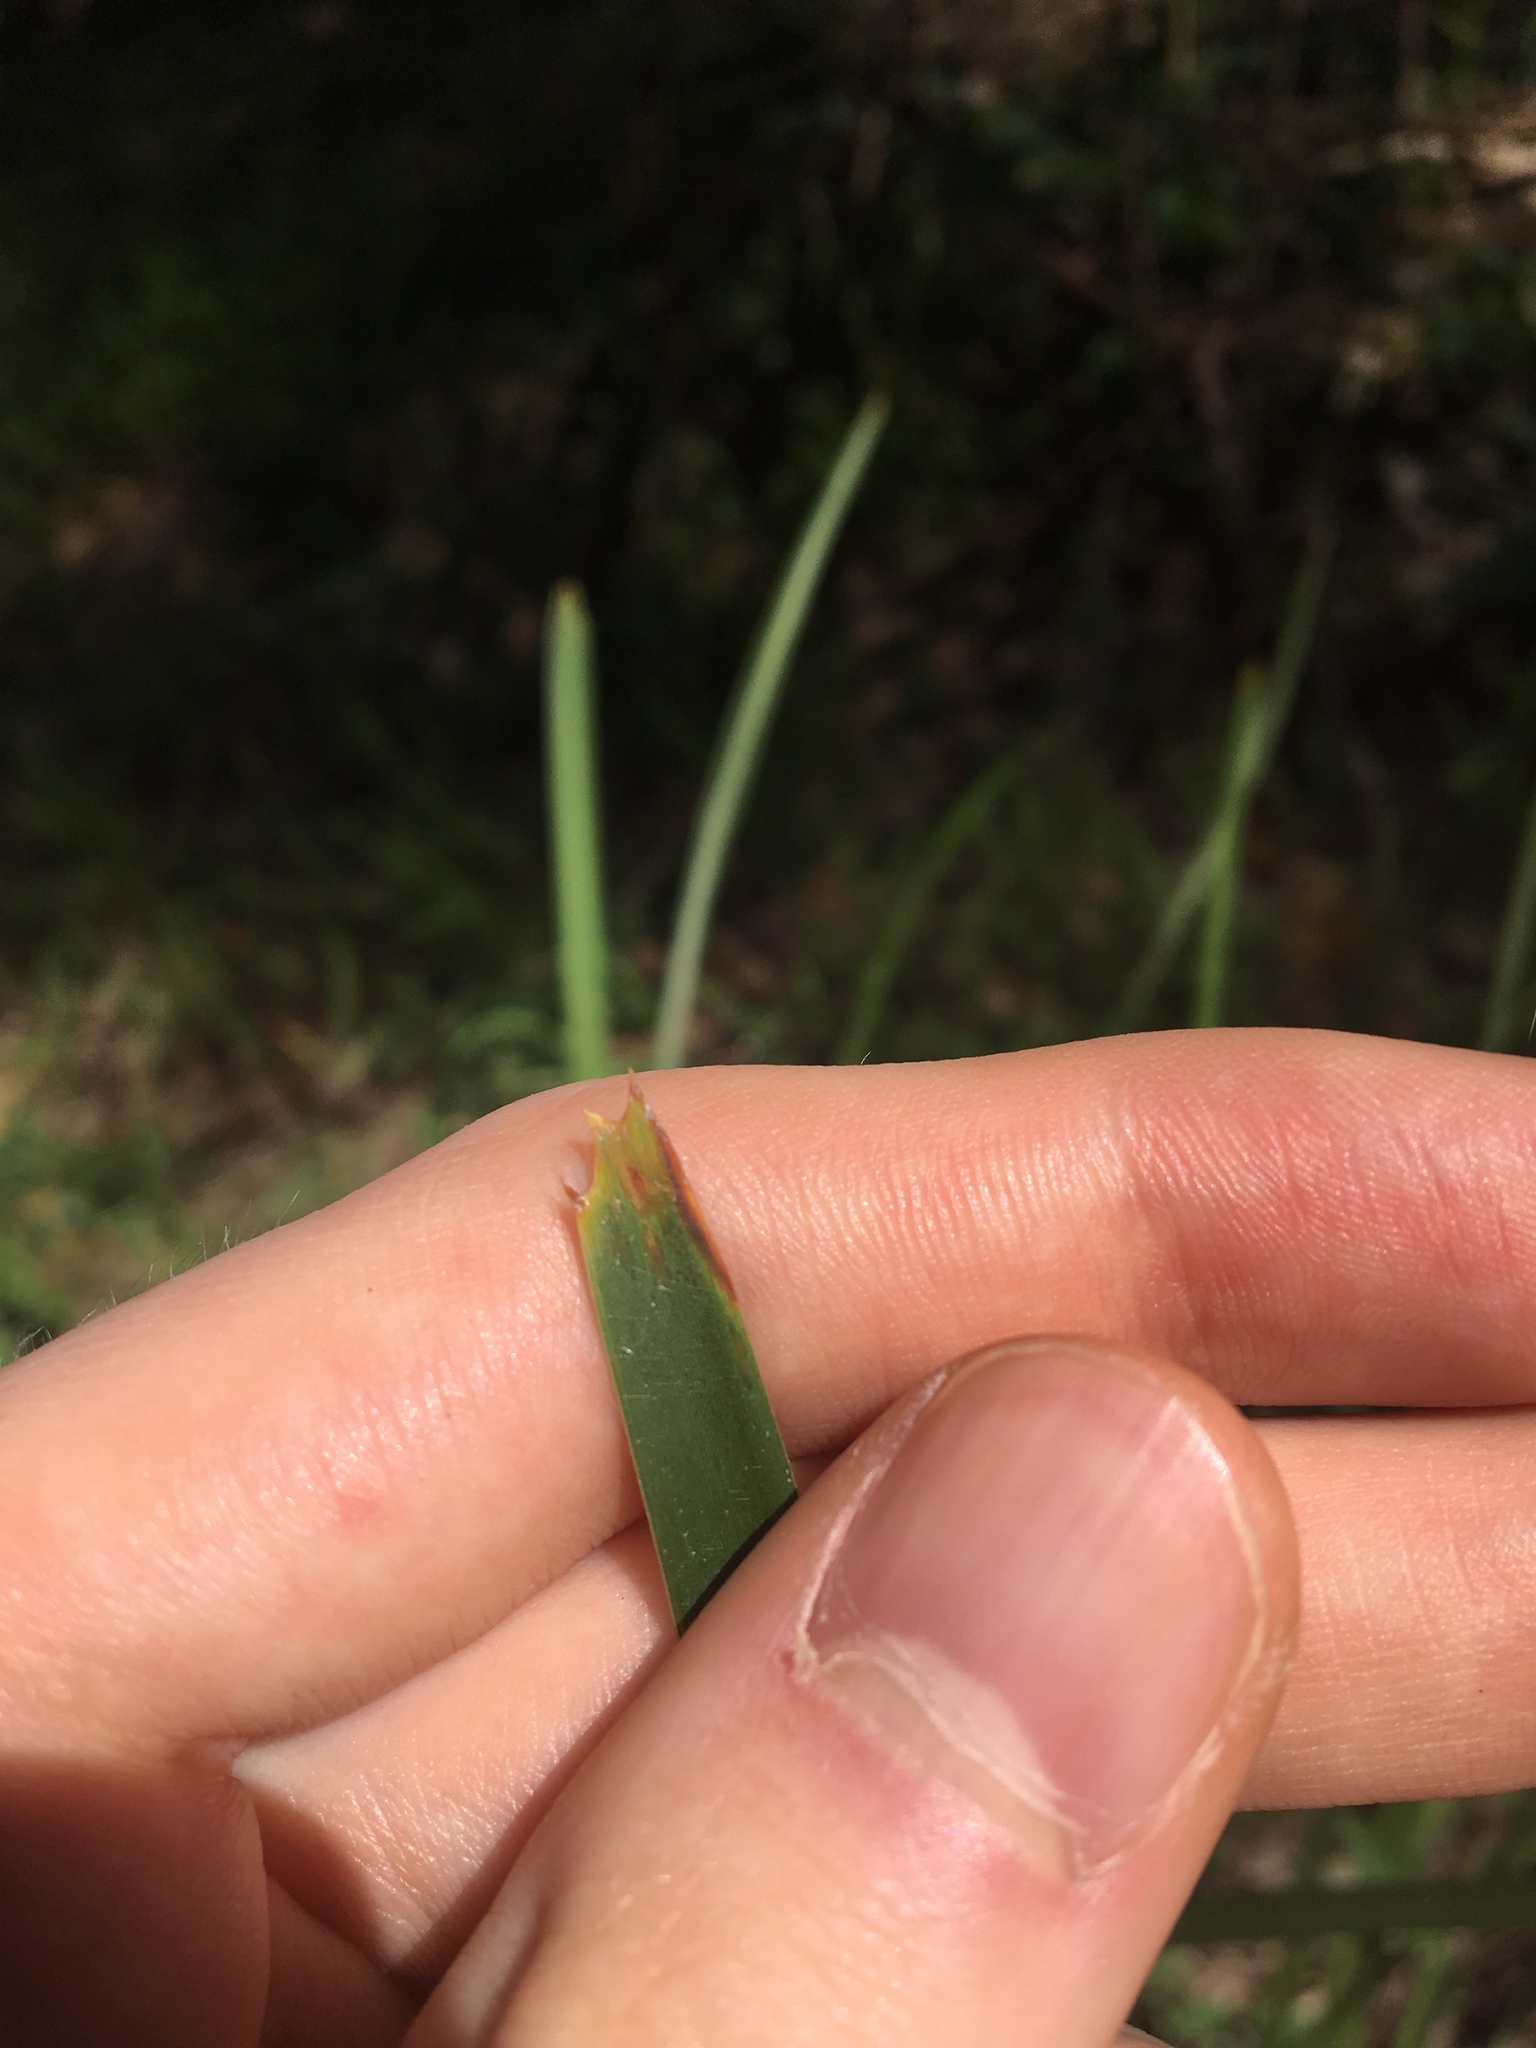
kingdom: Plantae
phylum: Tracheophyta
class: Liliopsida
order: Asparagales
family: Asparagaceae
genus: Lomandra
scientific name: Lomandra longifolia
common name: Longleaf mat-rush
